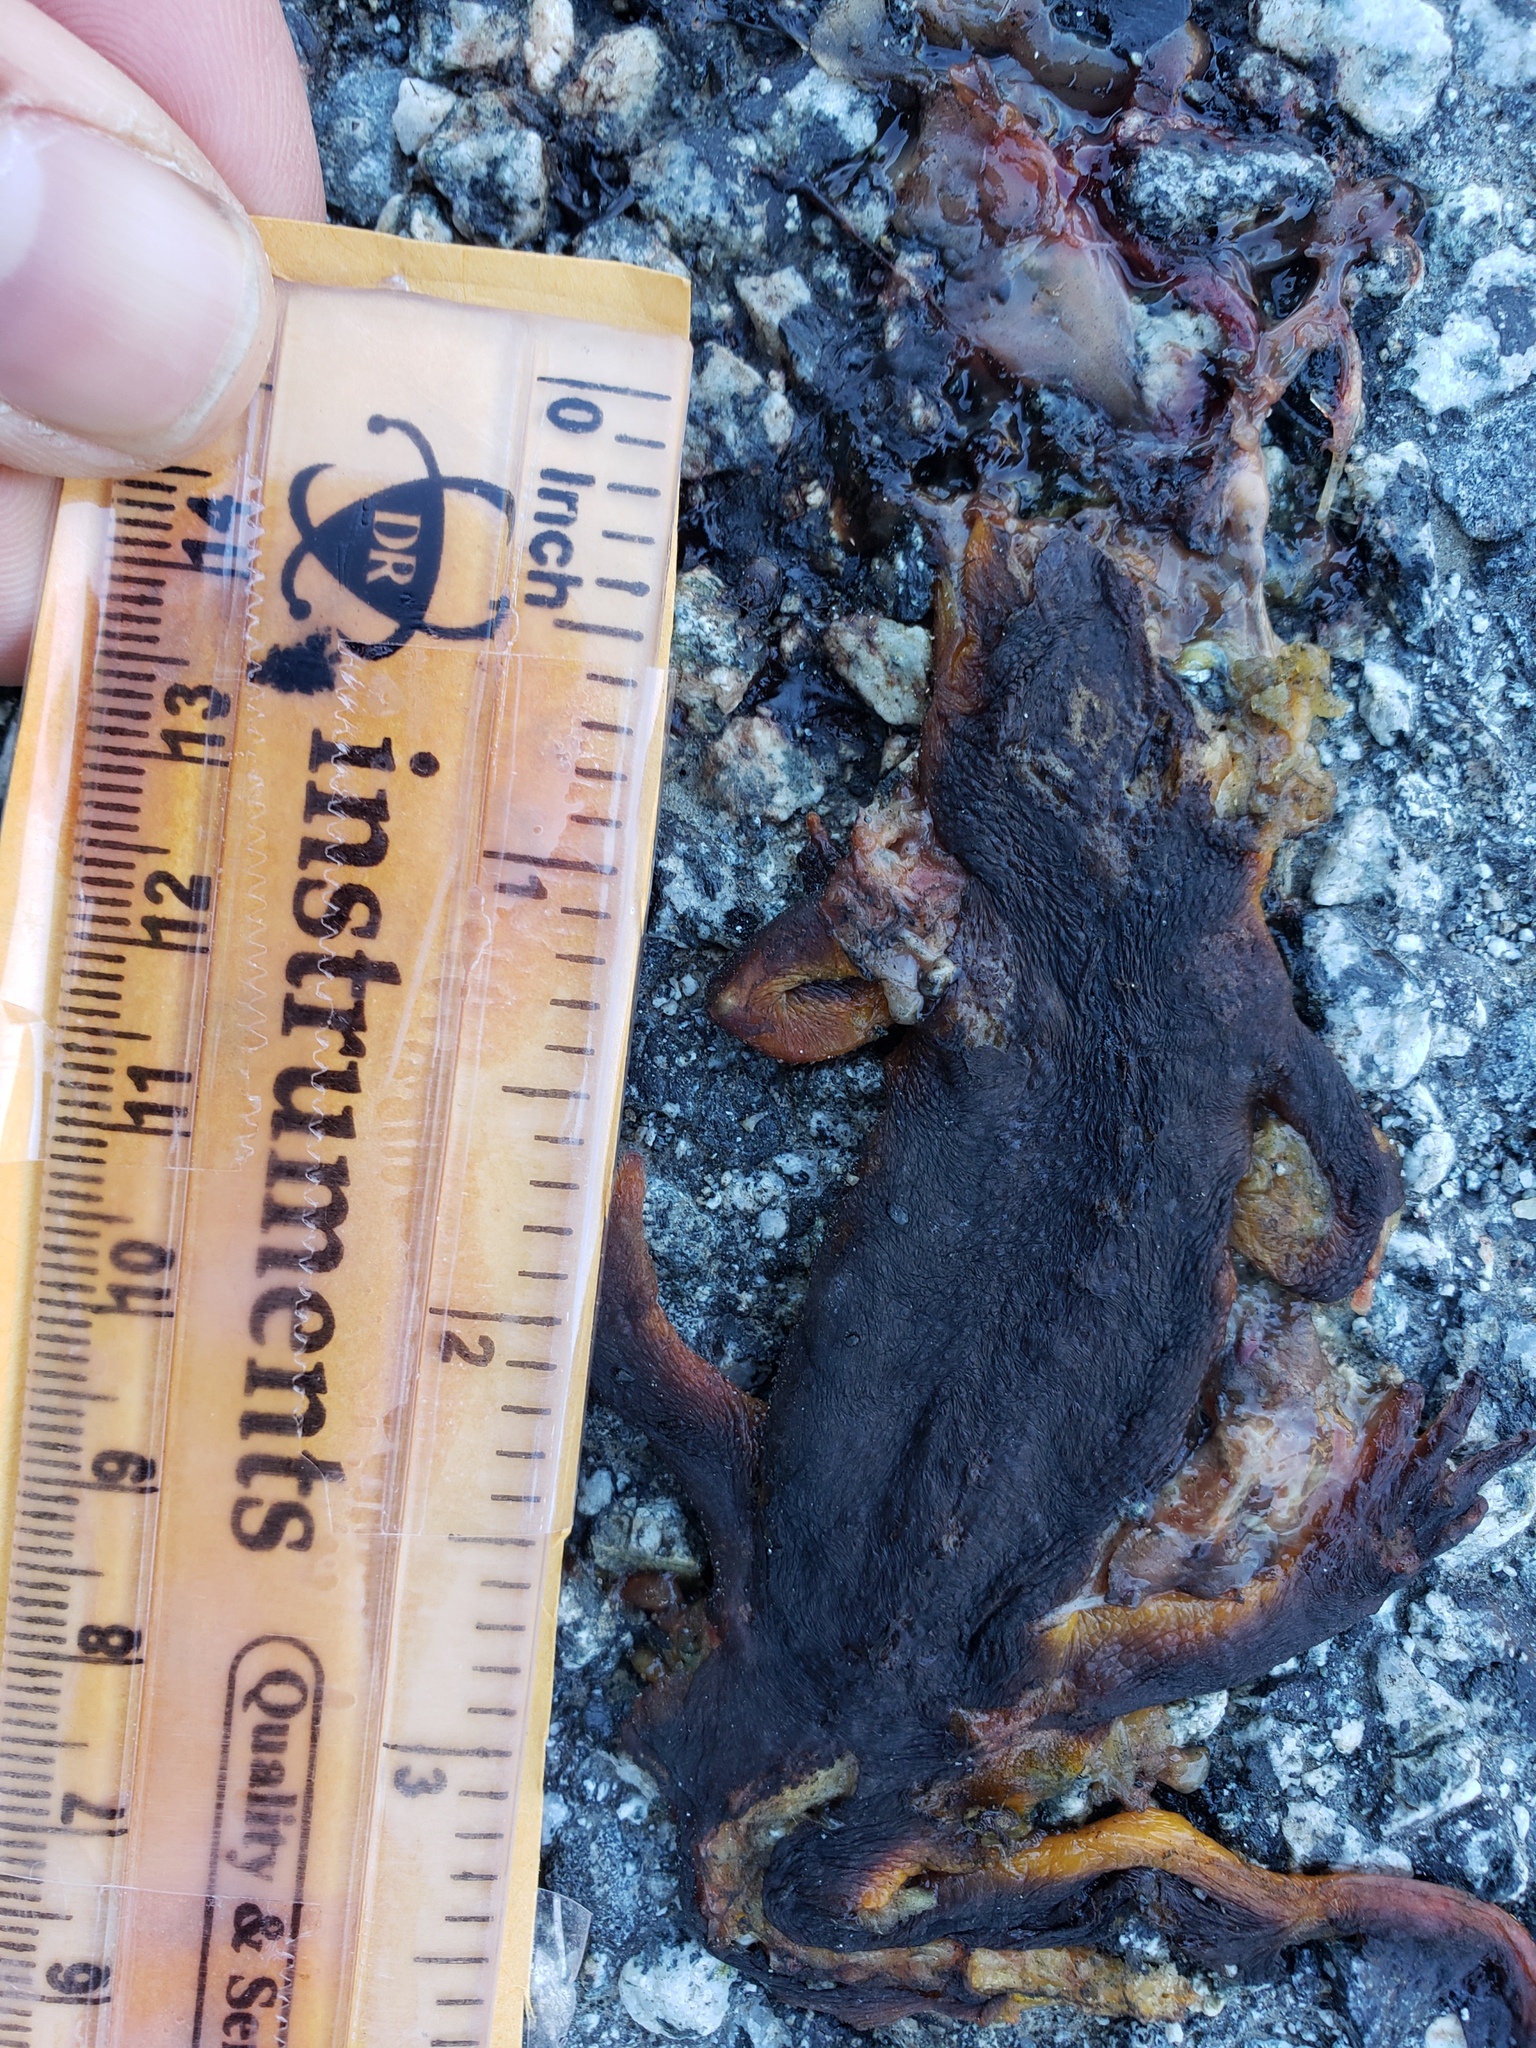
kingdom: Animalia
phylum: Chordata
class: Amphibia
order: Caudata
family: Salamandridae
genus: Taricha
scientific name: Taricha
